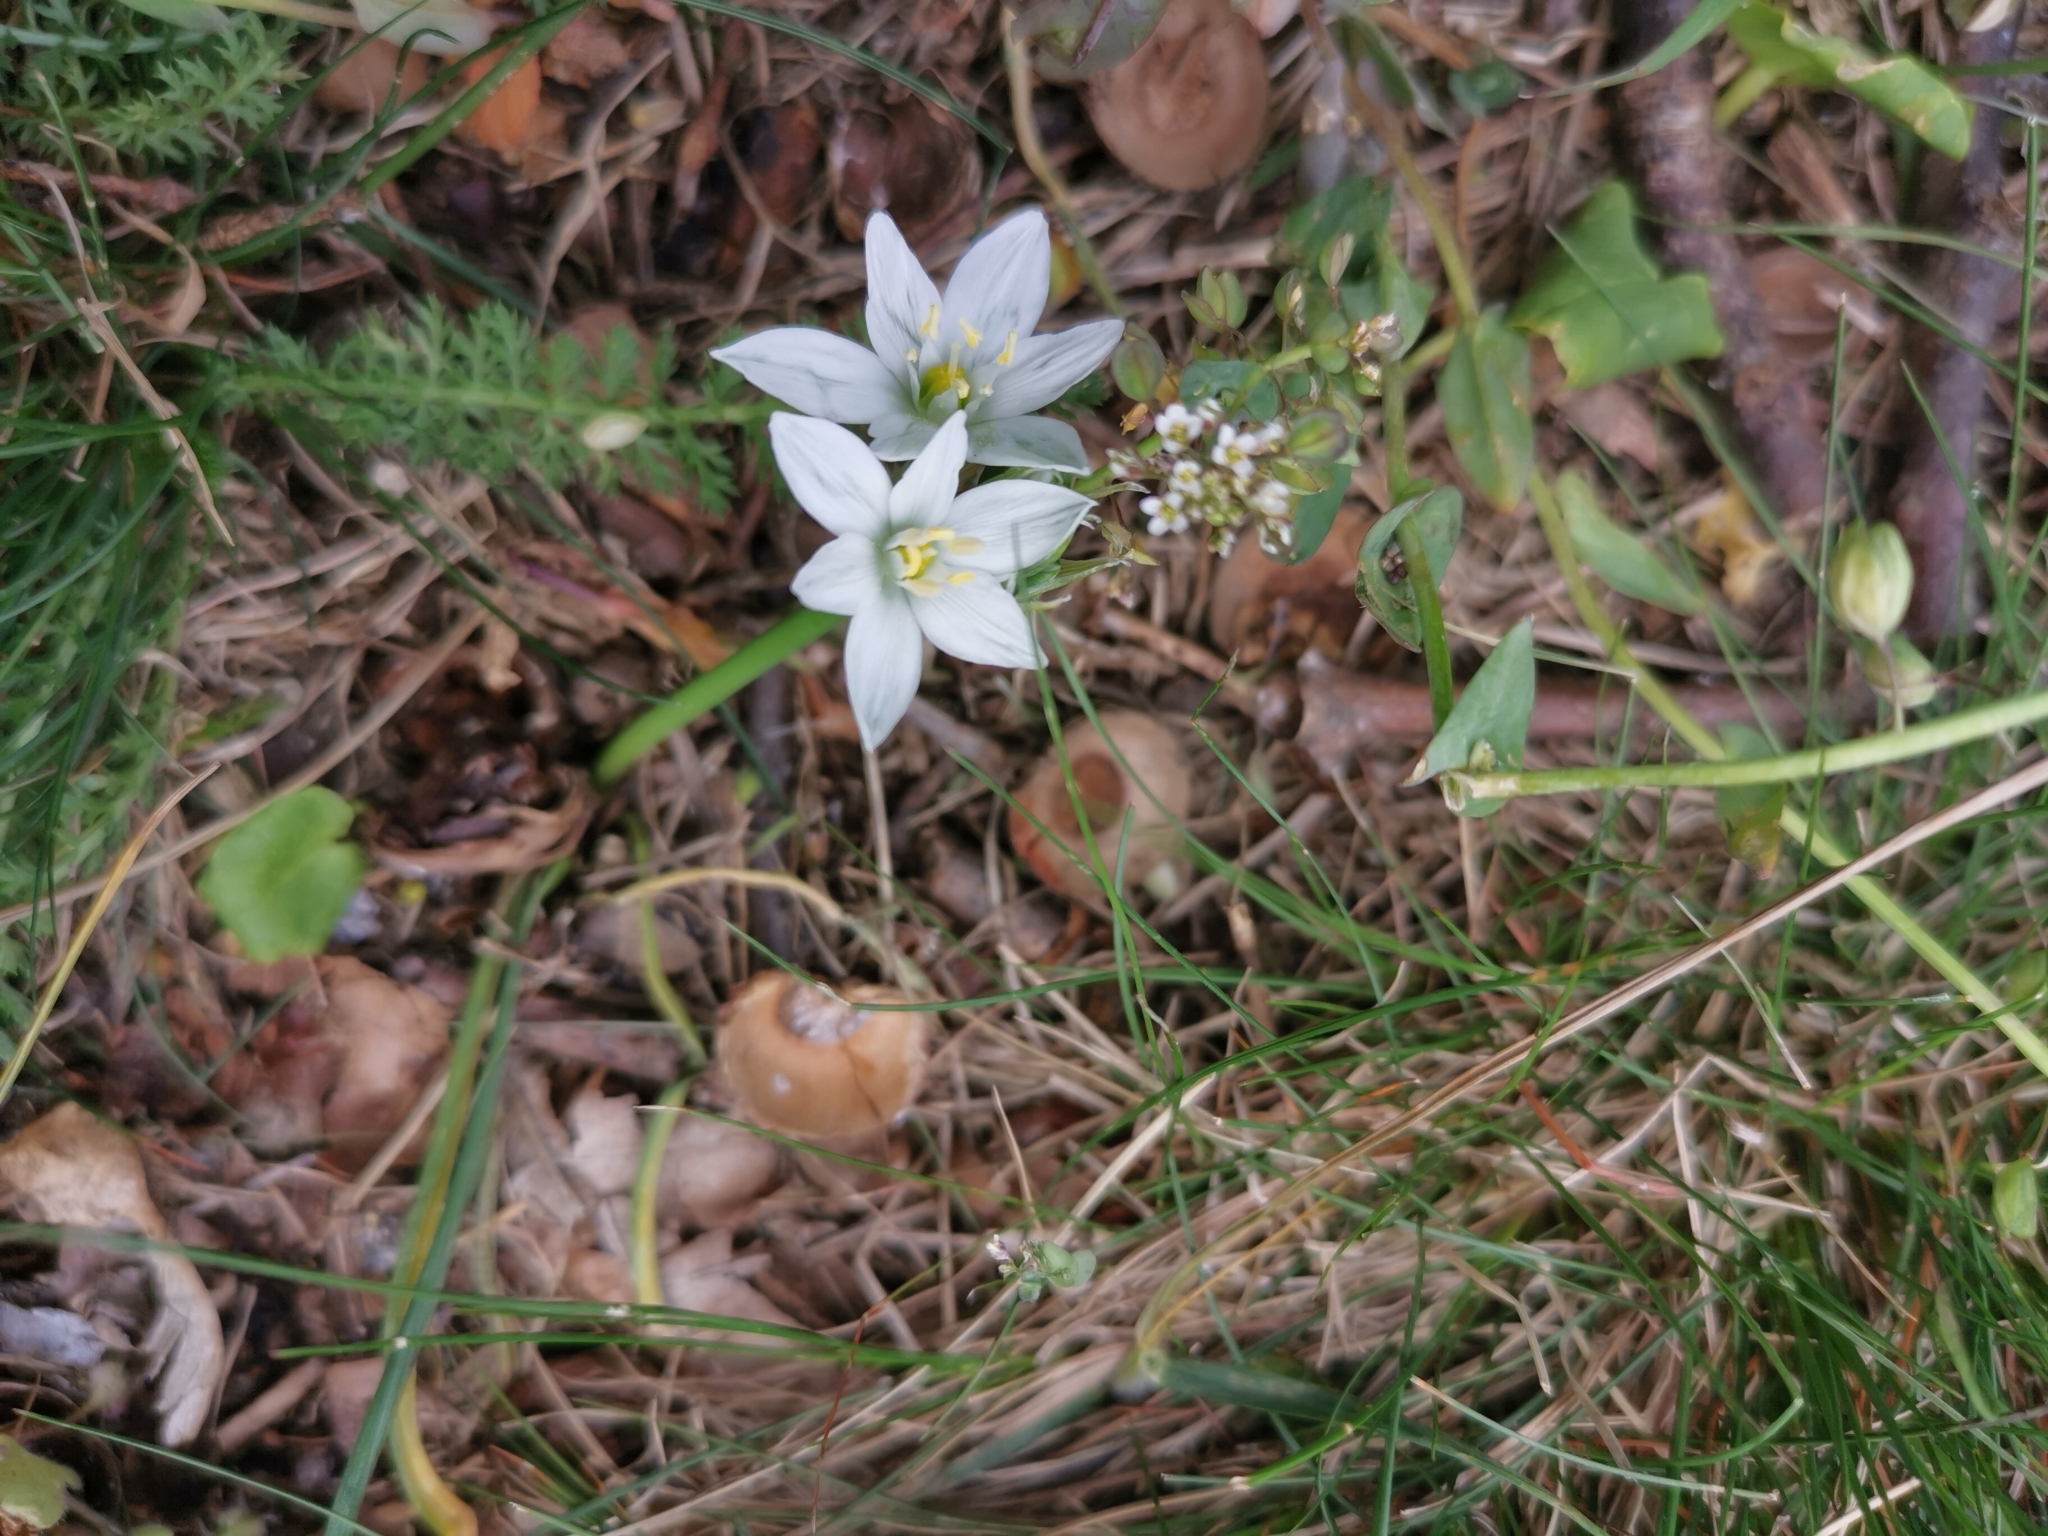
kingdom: Plantae
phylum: Tracheophyta
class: Liliopsida
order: Asparagales
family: Asparagaceae
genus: Ornithogalum
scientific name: Ornithogalum orthophyllum
